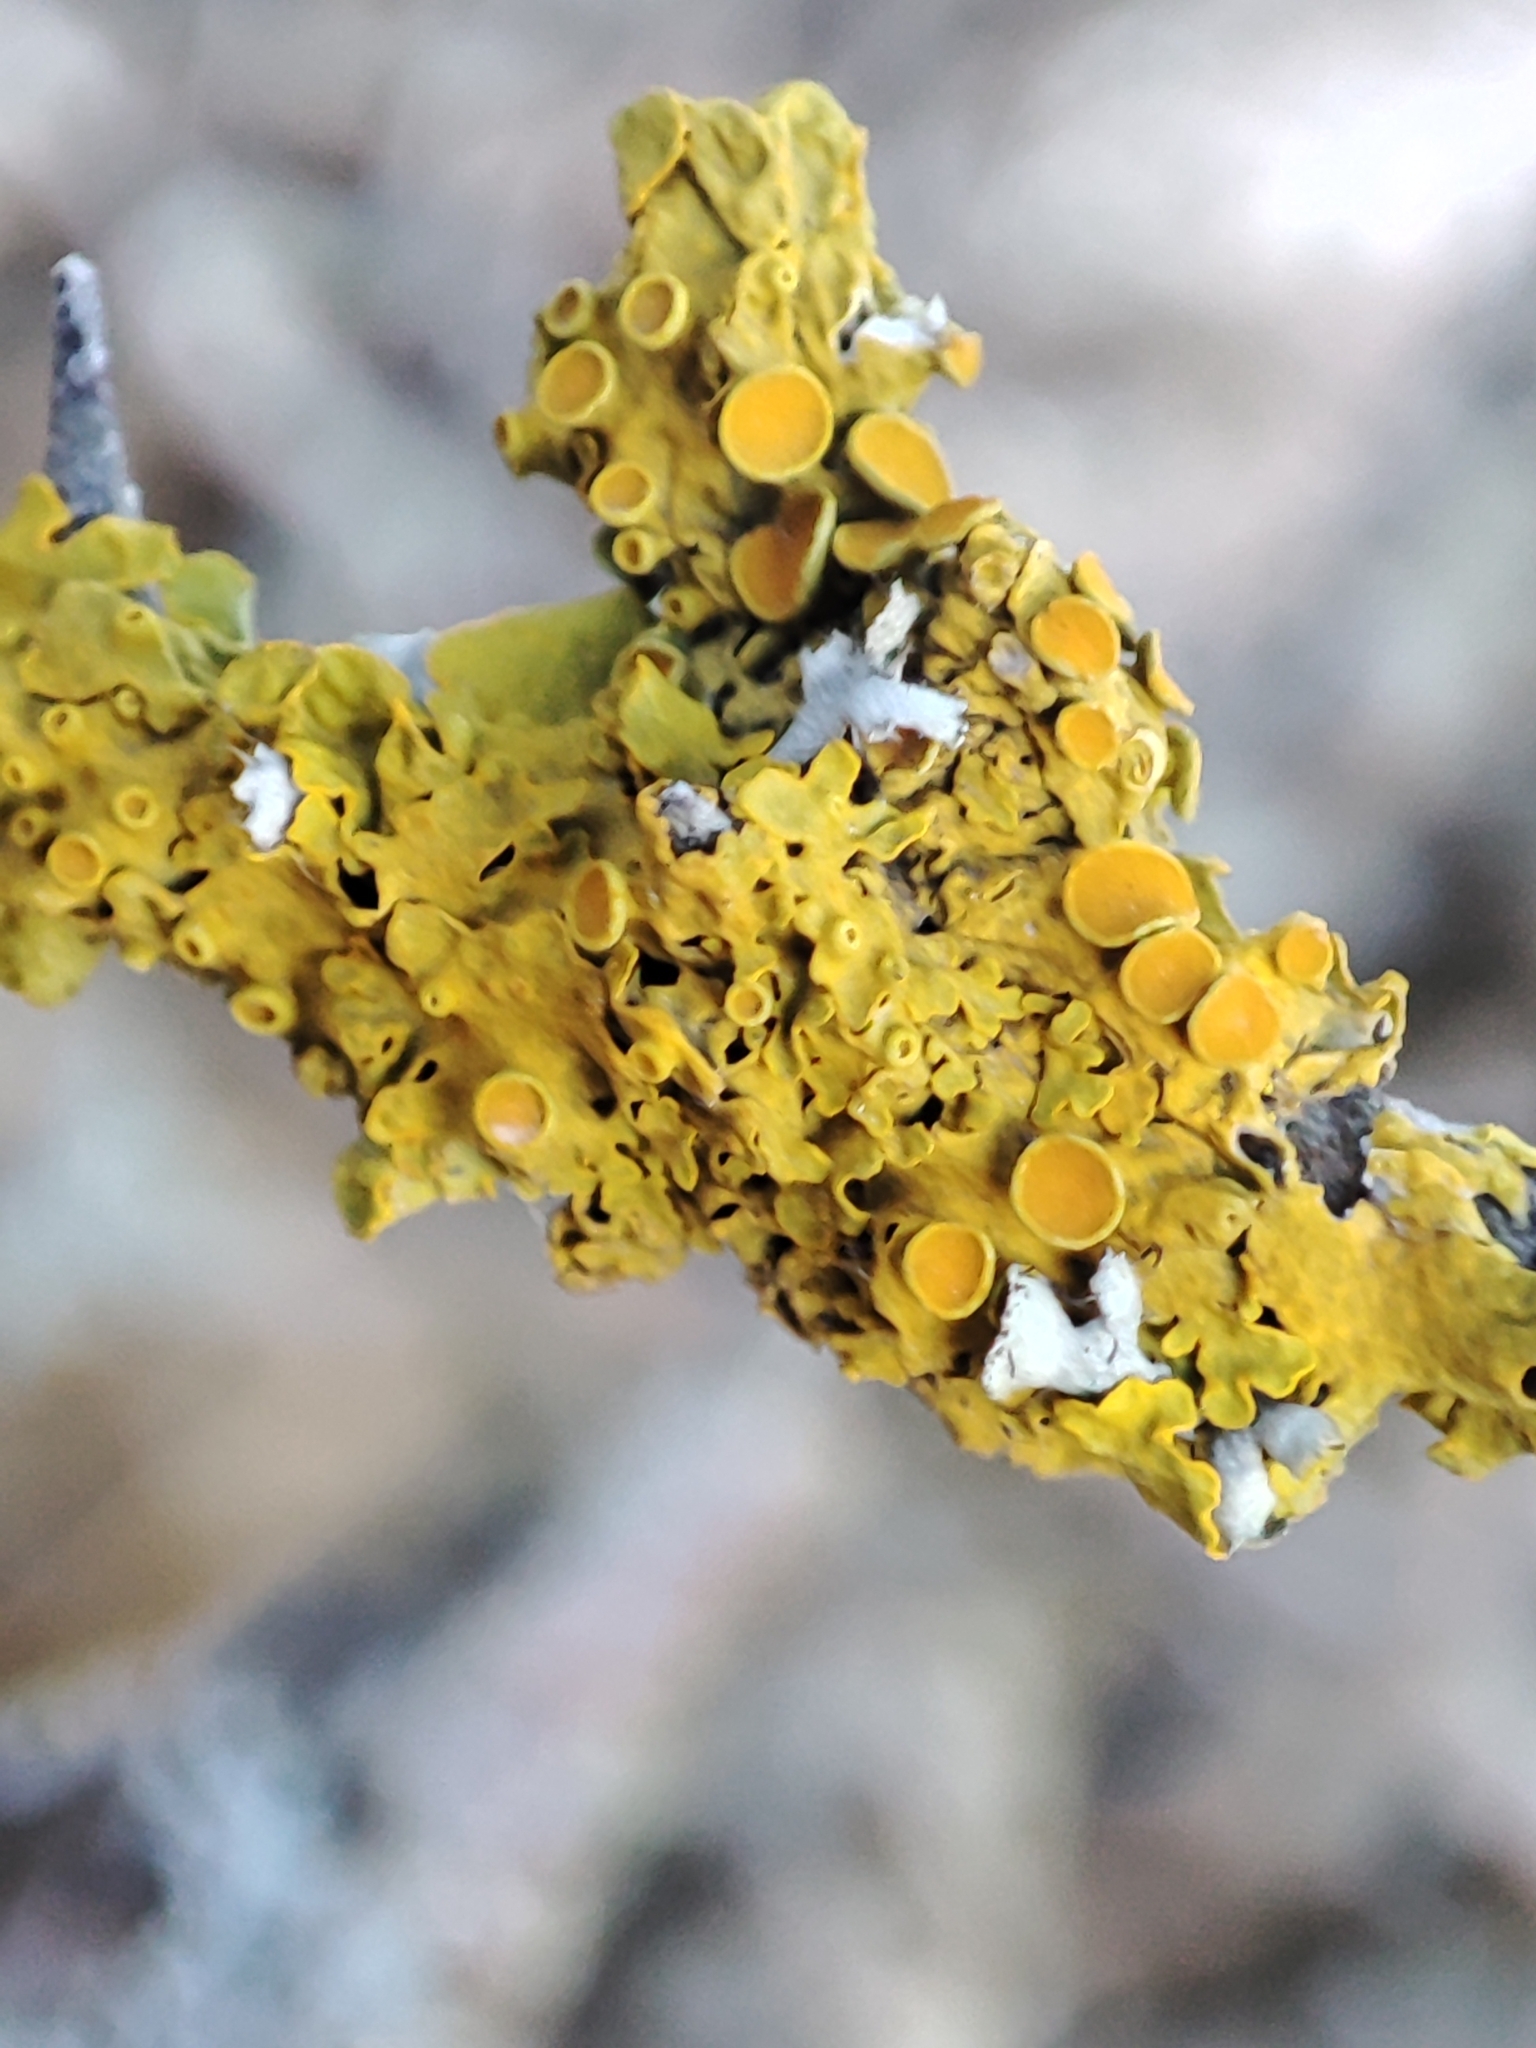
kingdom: Fungi
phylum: Ascomycota
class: Lecanoromycetes
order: Teloschistales
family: Teloschistaceae
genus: Xanthoria
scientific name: Xanthoria parietina
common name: Common orange lichen
